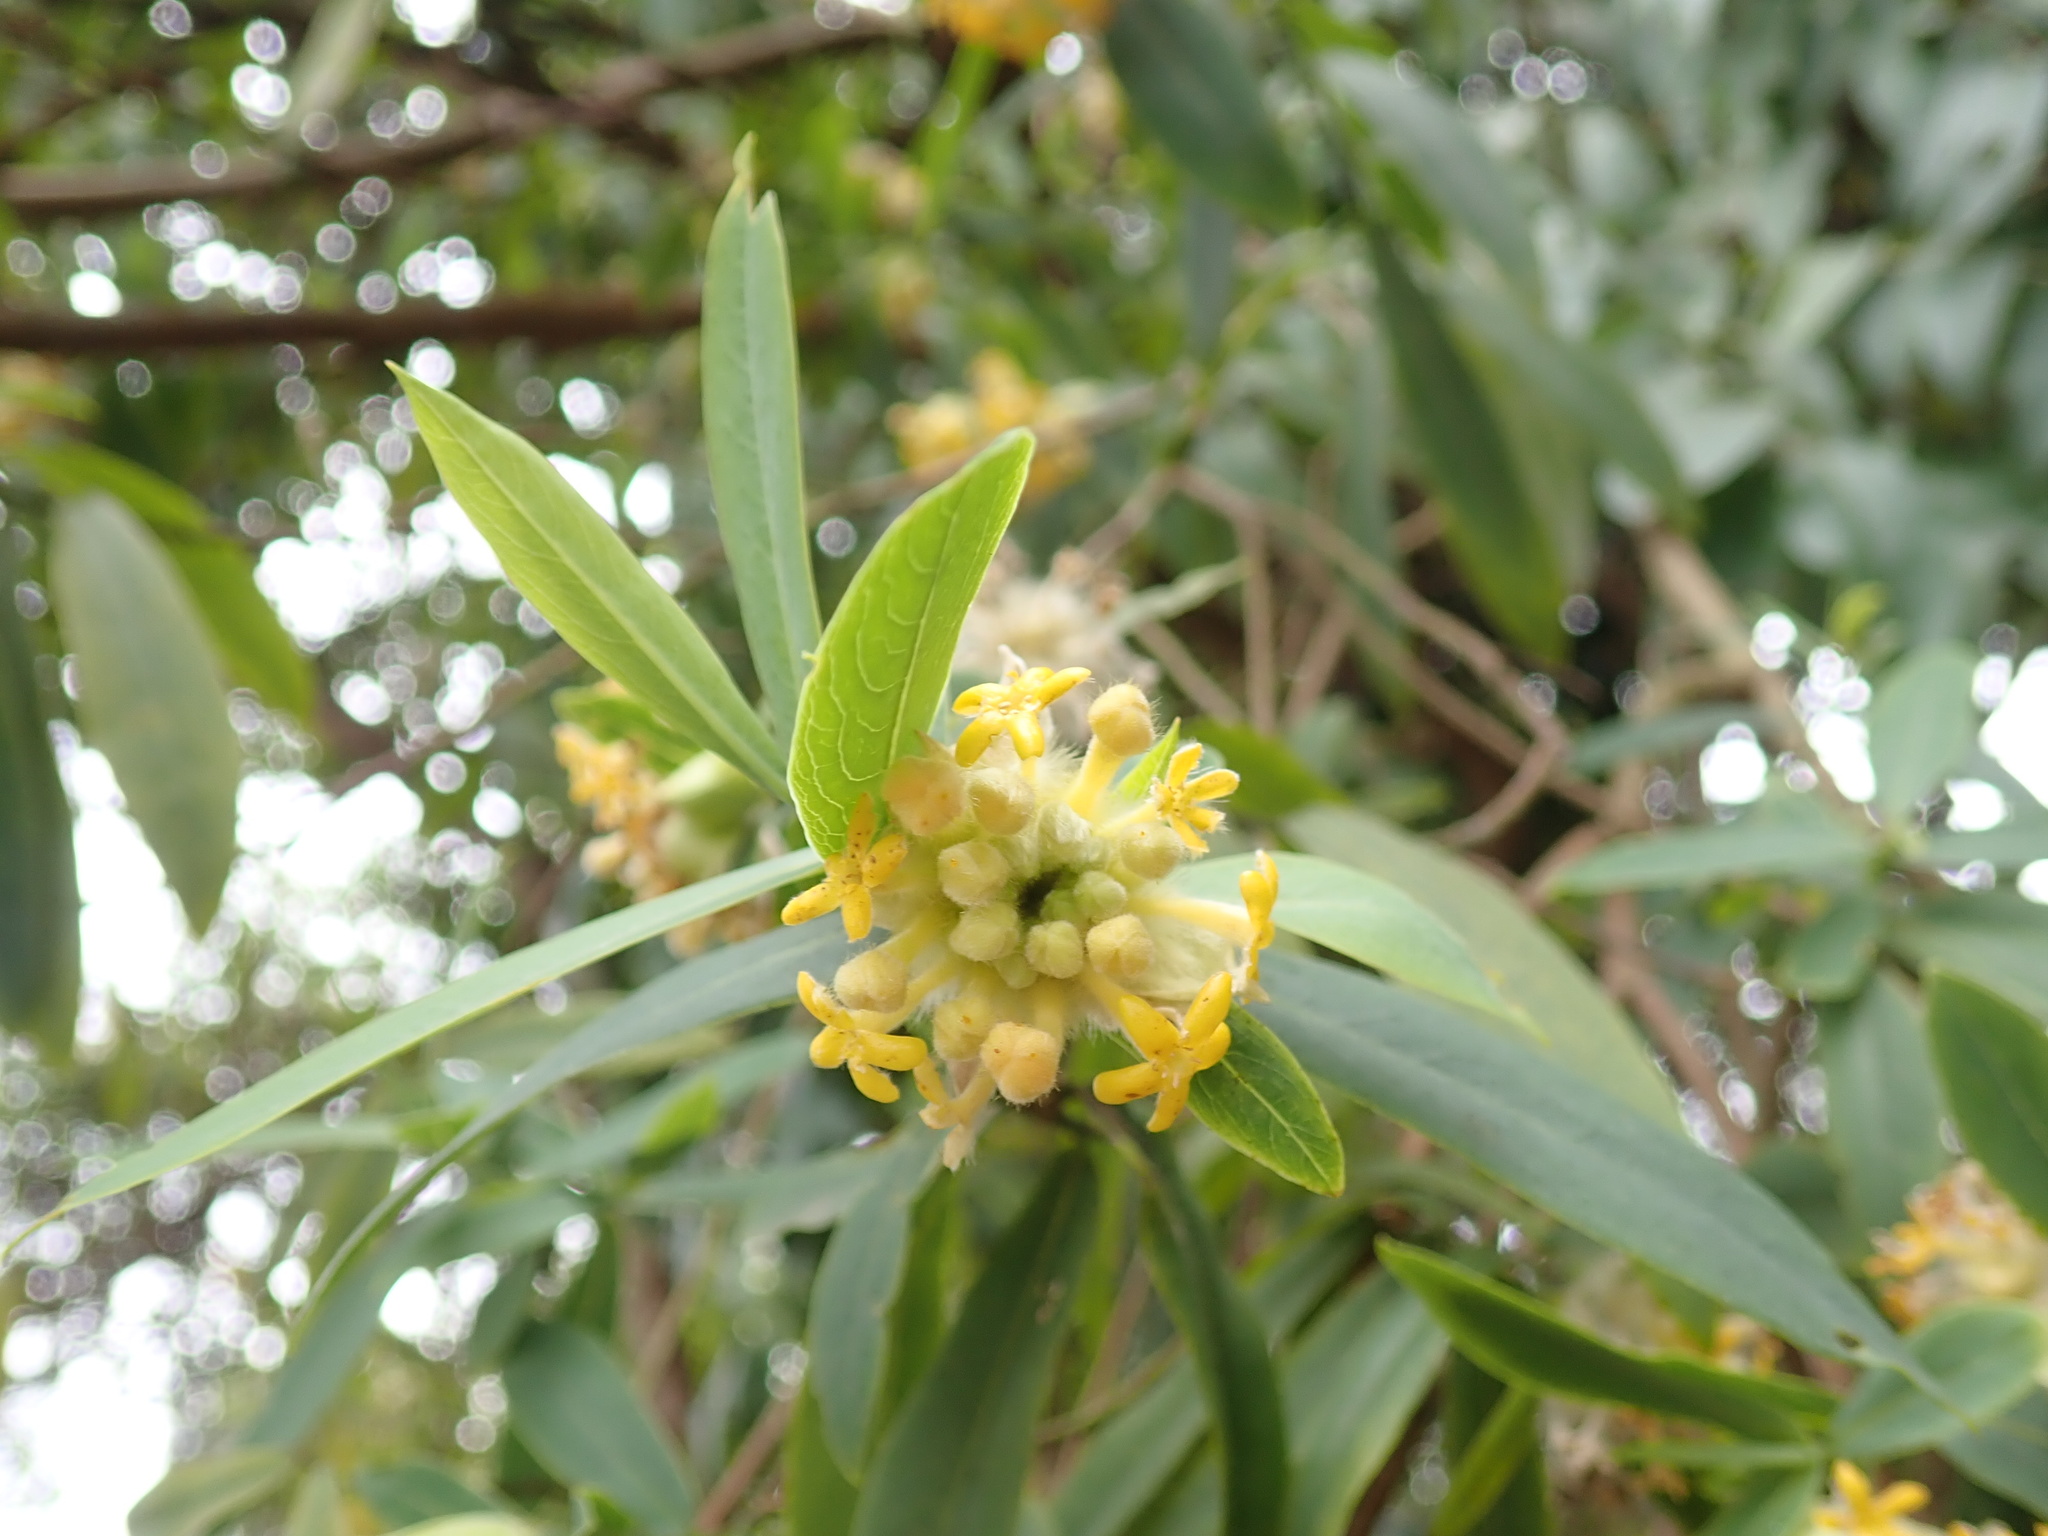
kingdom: Plantae
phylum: Tracheophyta
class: Magnoliopsida
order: Malvales
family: Thymelaeaceae
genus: Gnidia
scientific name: Gnidia glauca
